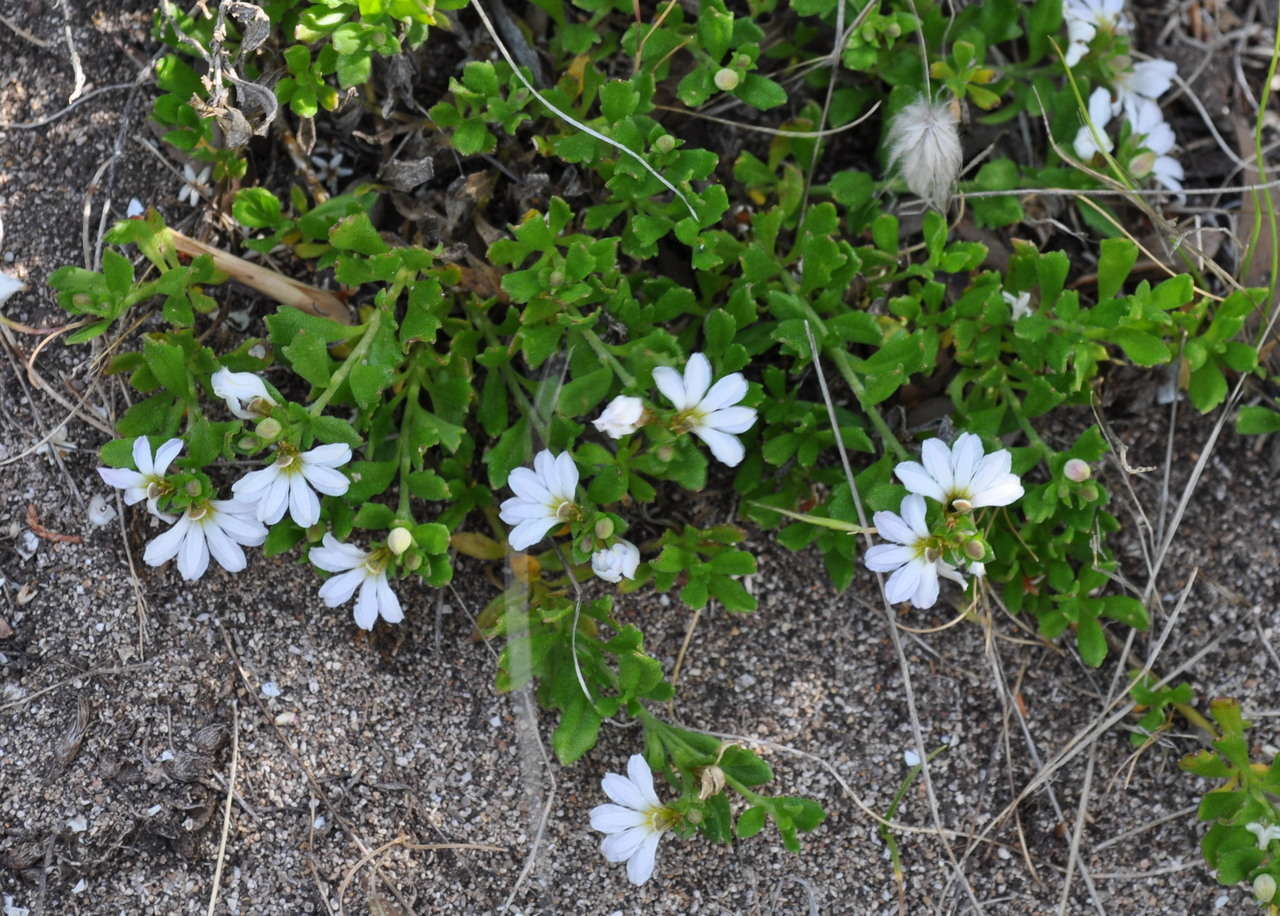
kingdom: Plantae
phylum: Tracheophyta
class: Magnoliopsida
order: Asterales
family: Goodeniaceae
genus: Scaevola
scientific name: Scaevola albida
